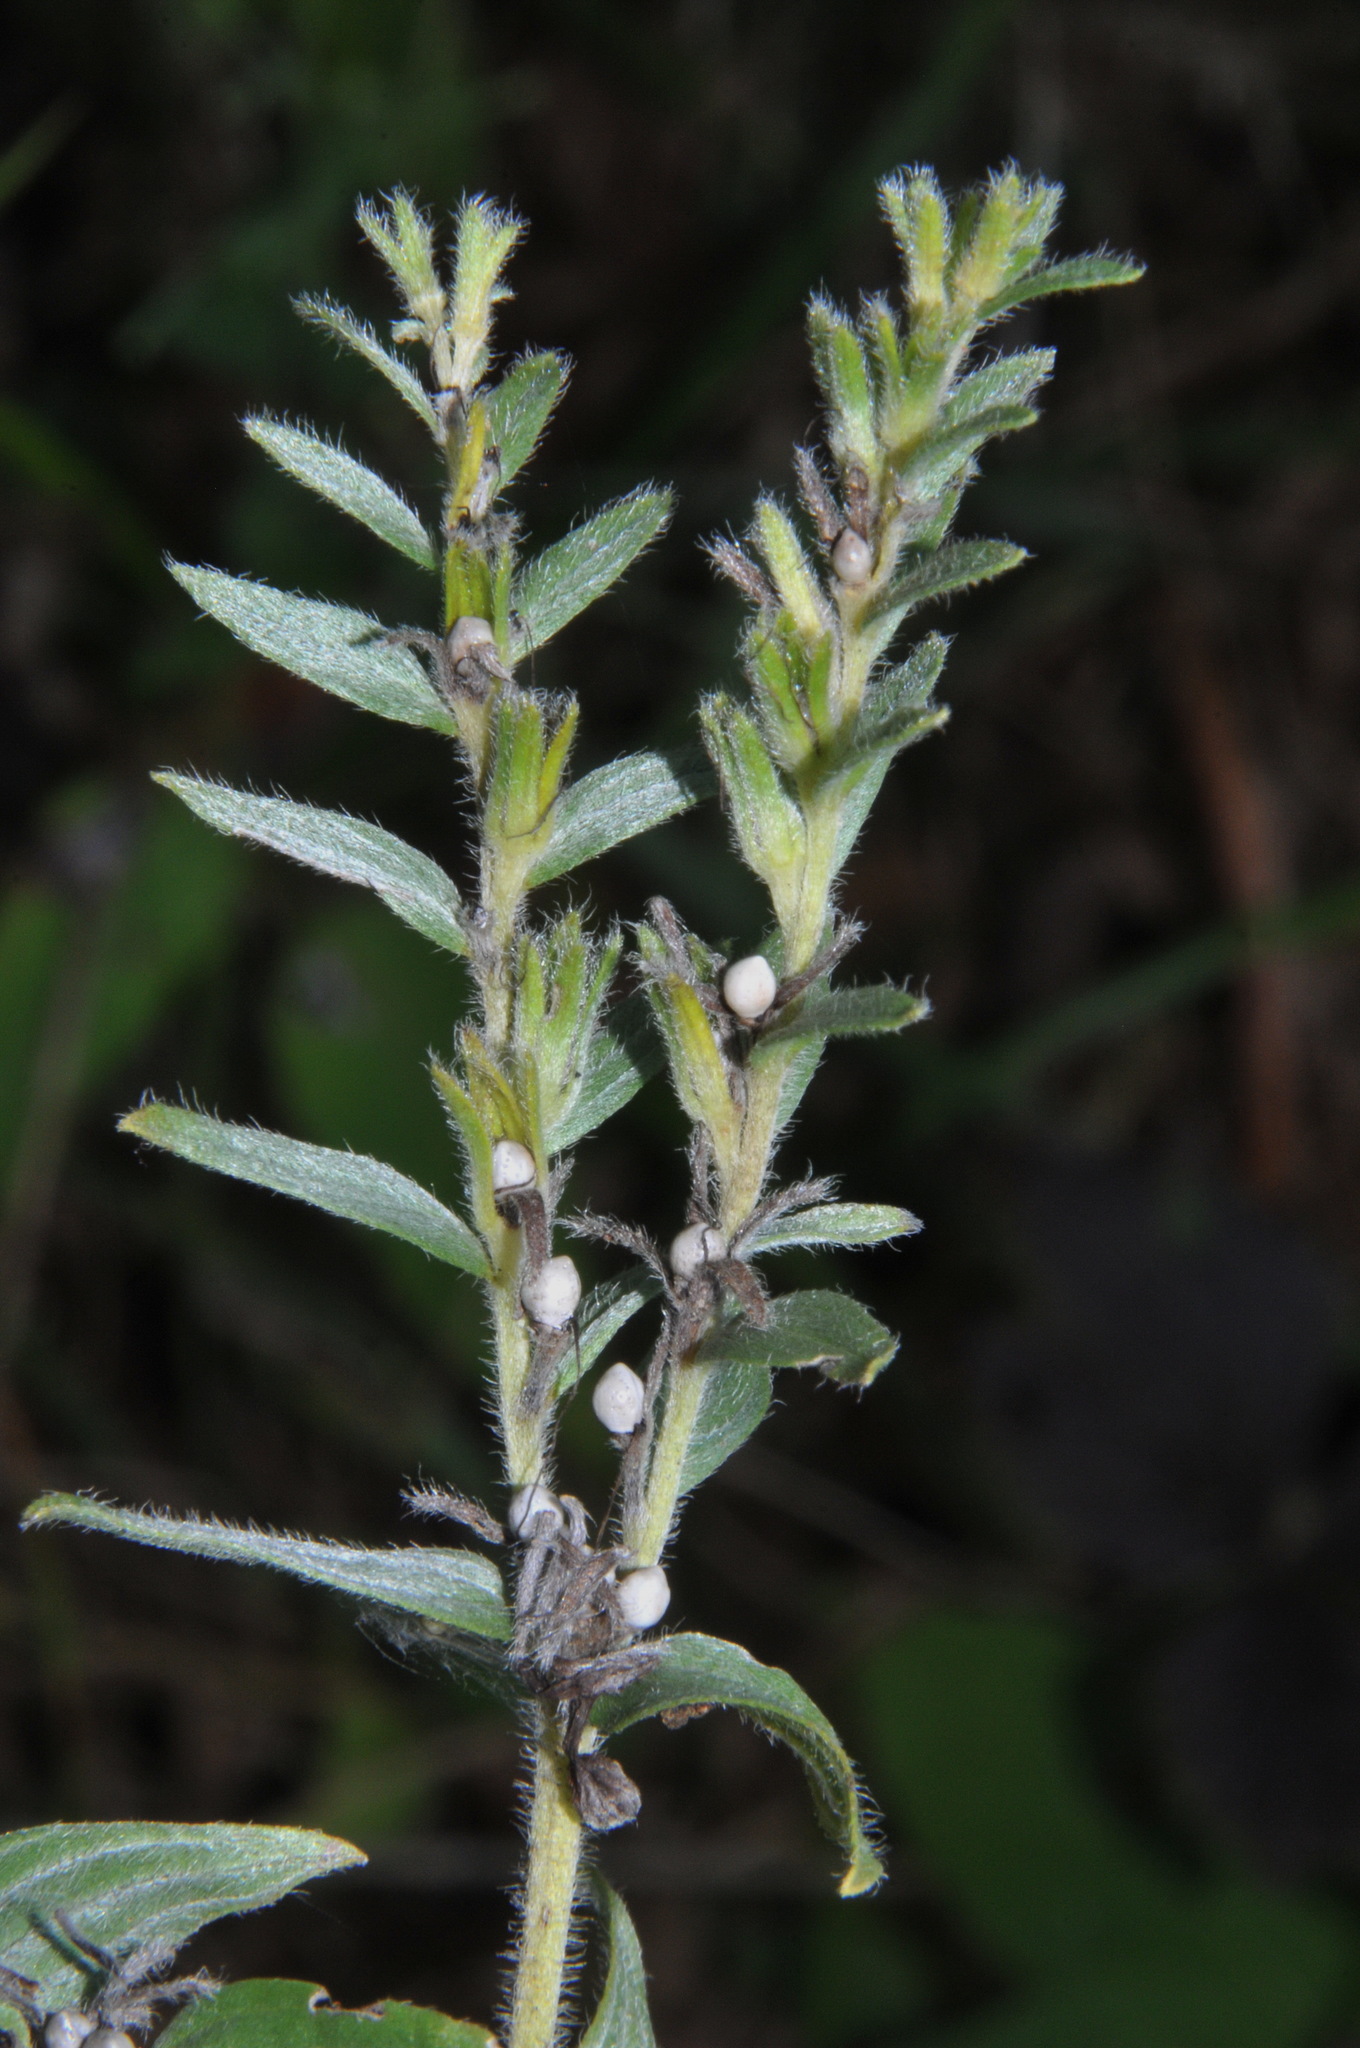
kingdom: Plantae
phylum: Tracheophyta
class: Magnoliopsida
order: Boraginales
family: Boraginaceae
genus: Lithospermum
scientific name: Lithospermum molle
